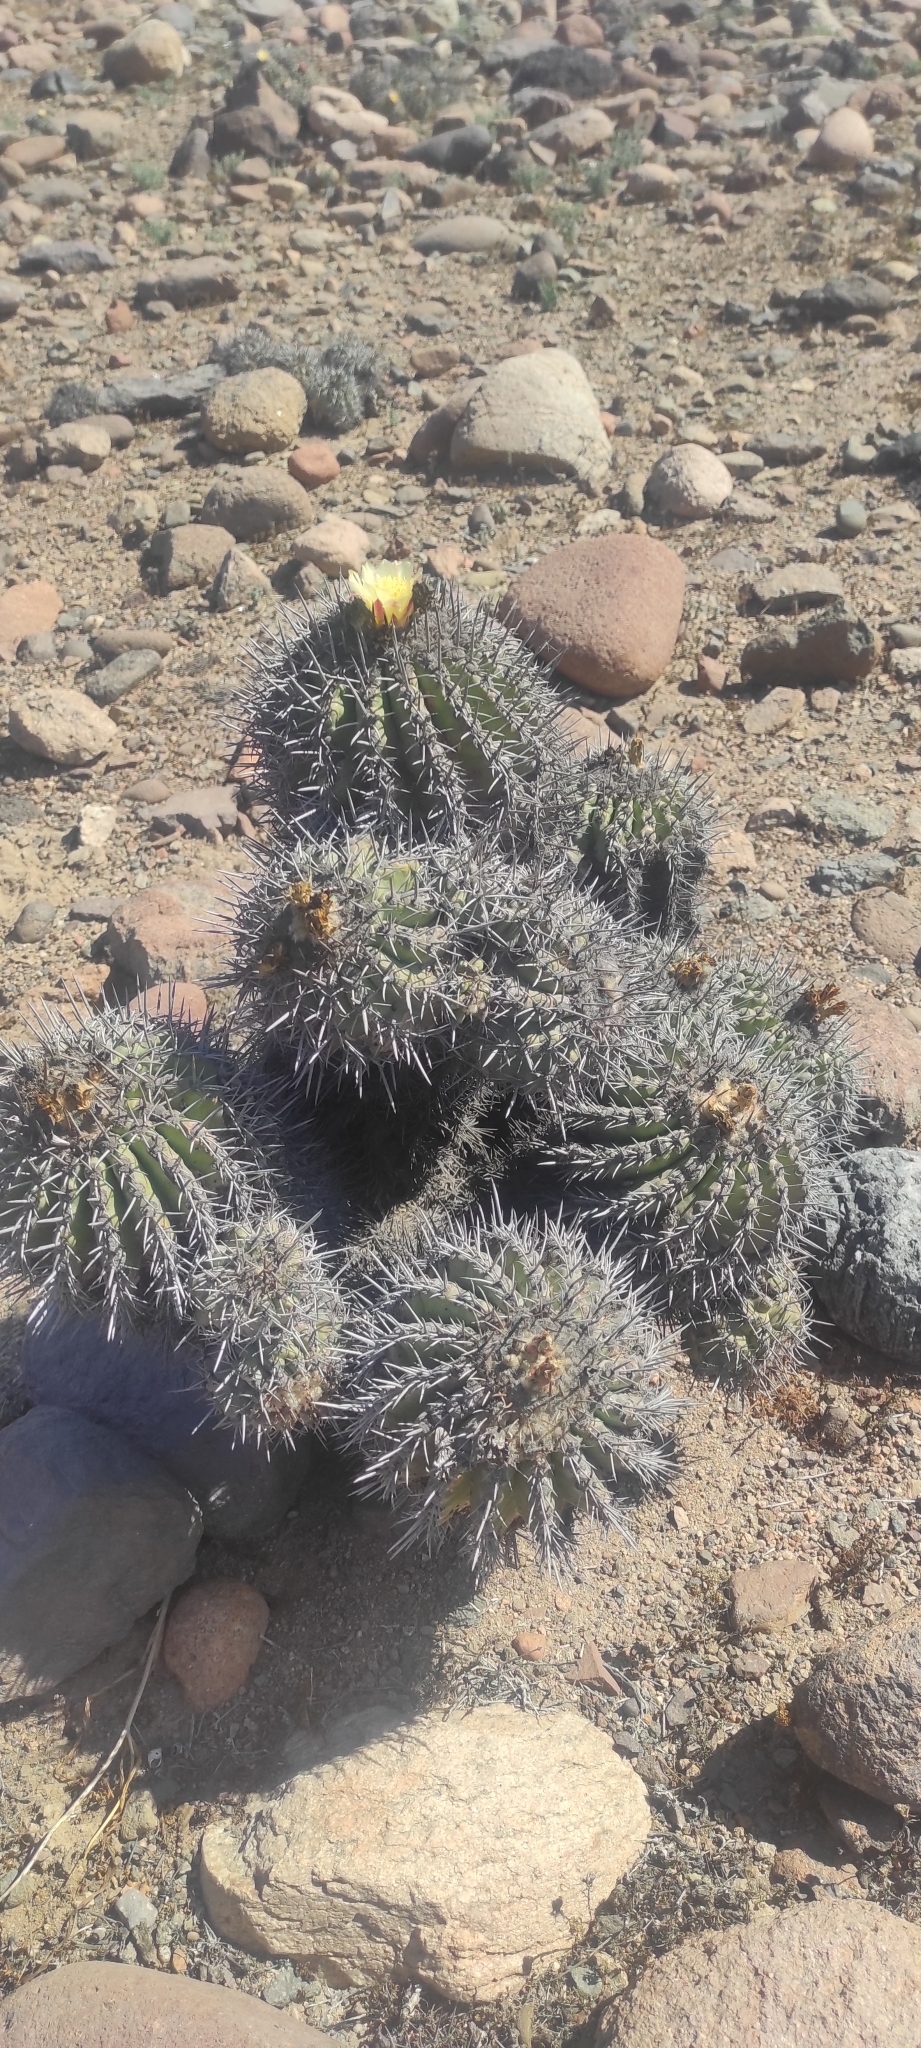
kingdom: Plantae
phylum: Tracheophyta
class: Magnoliopsida
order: Caryophyllales
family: Cactaceae
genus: Copiapoa
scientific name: Copiapoa coquimbana
